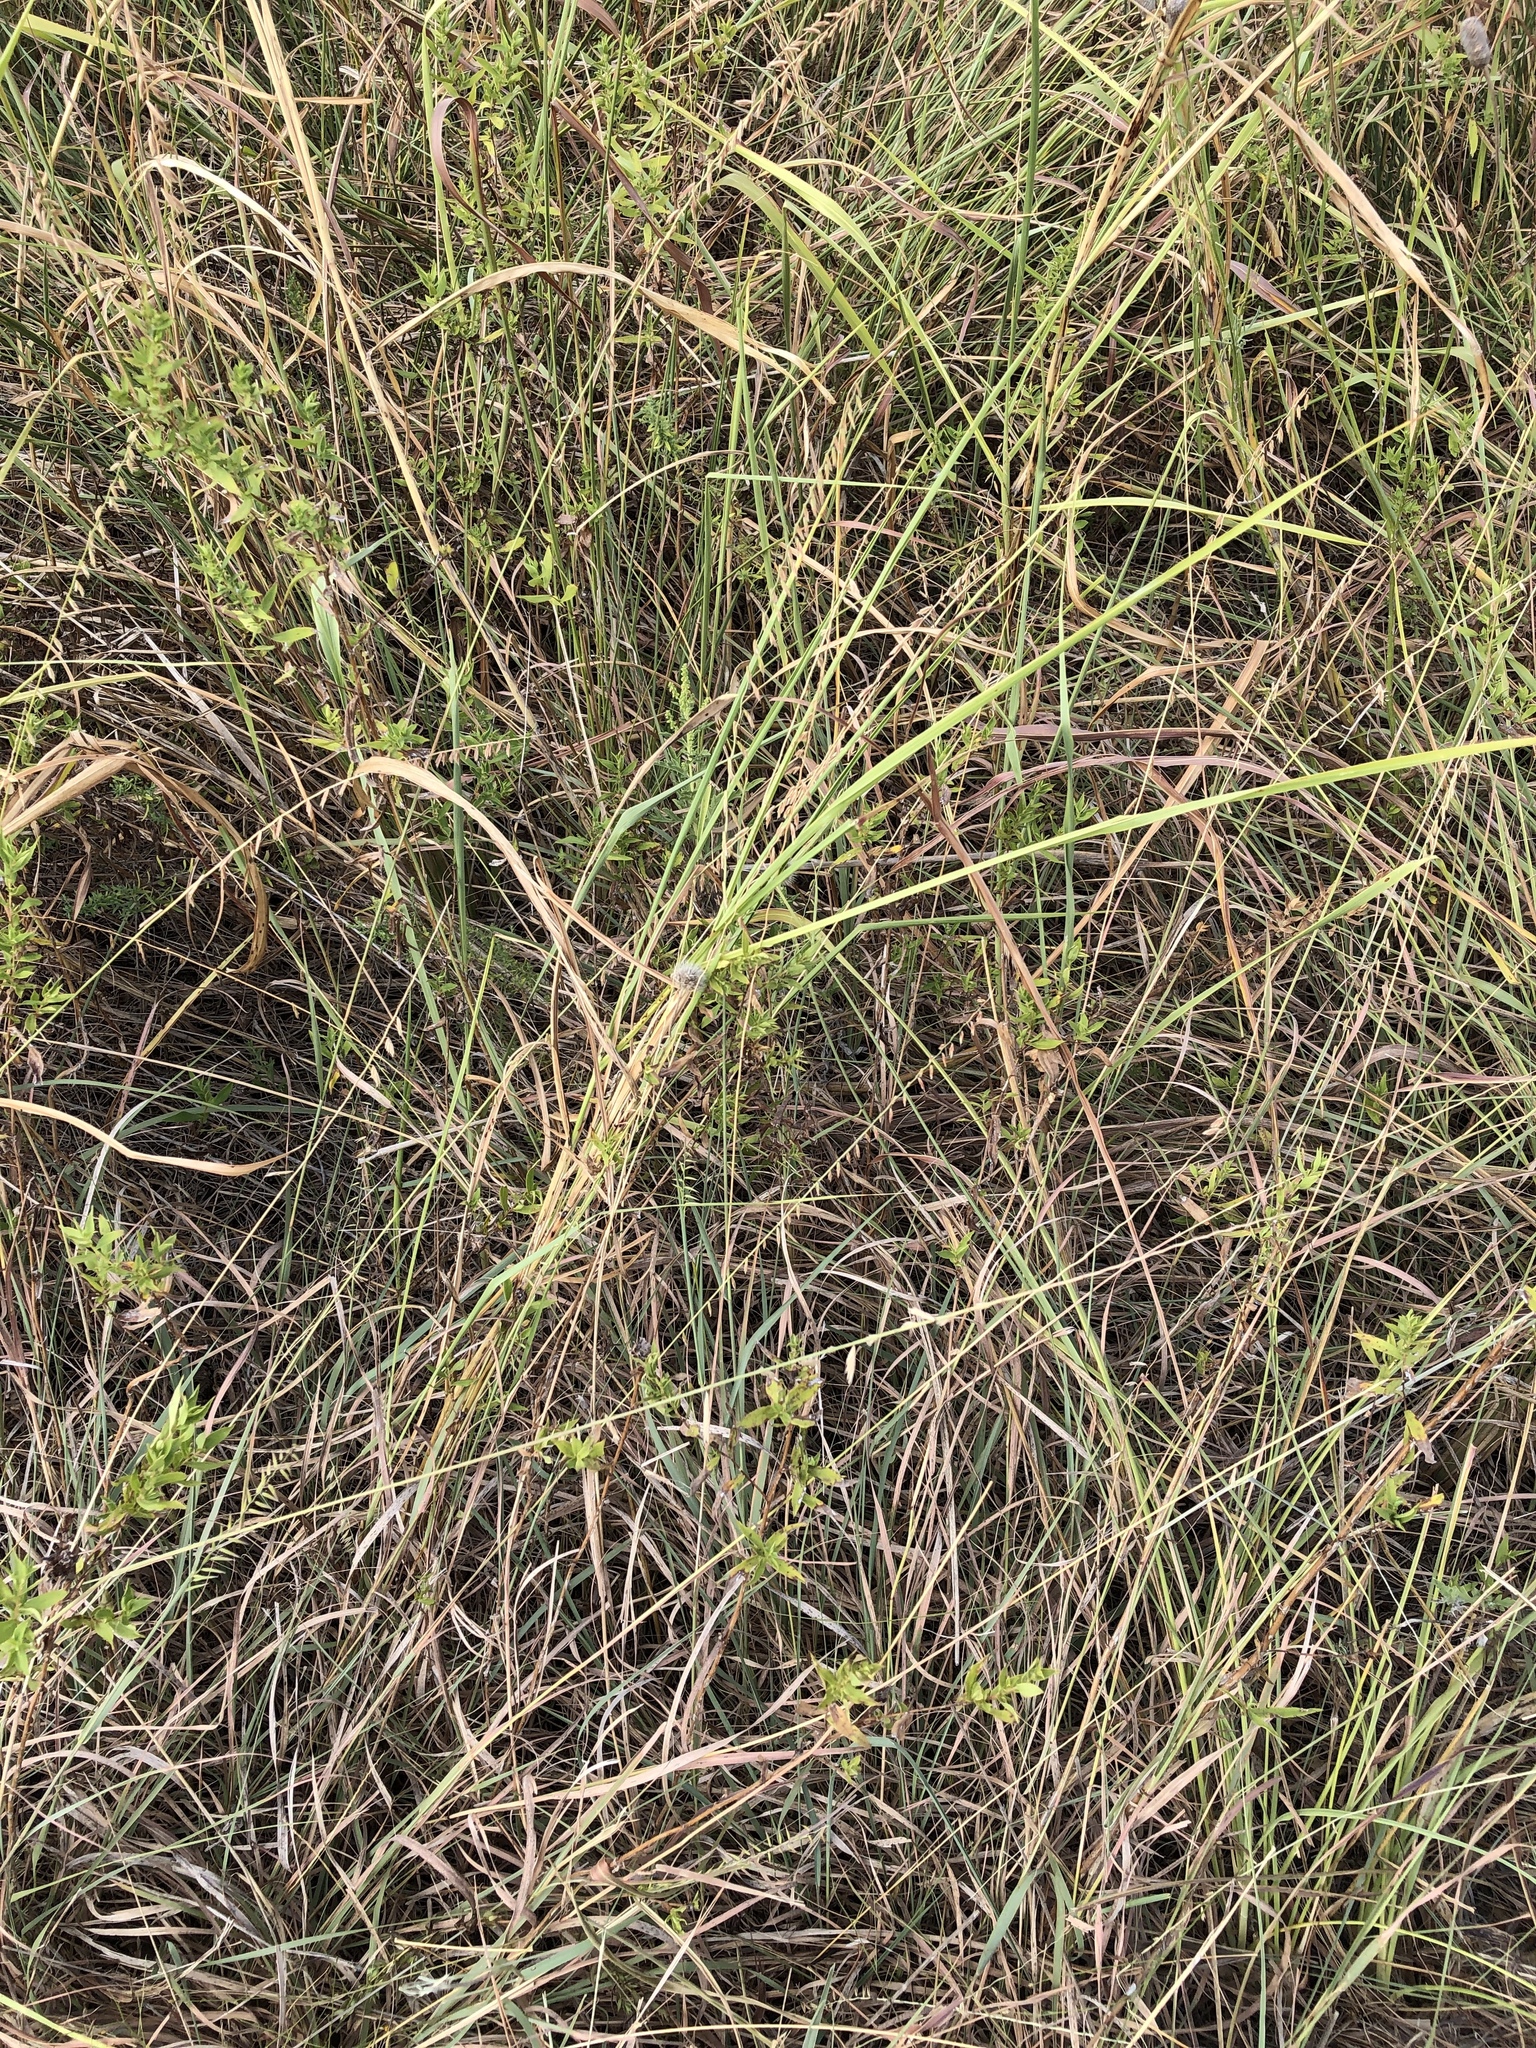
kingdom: Plantae
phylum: Tracheophyta
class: Liliopsida
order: Poales
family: Poaceae
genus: Bouteloua
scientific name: Bouteloua curtipendula
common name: Side-oats grama
